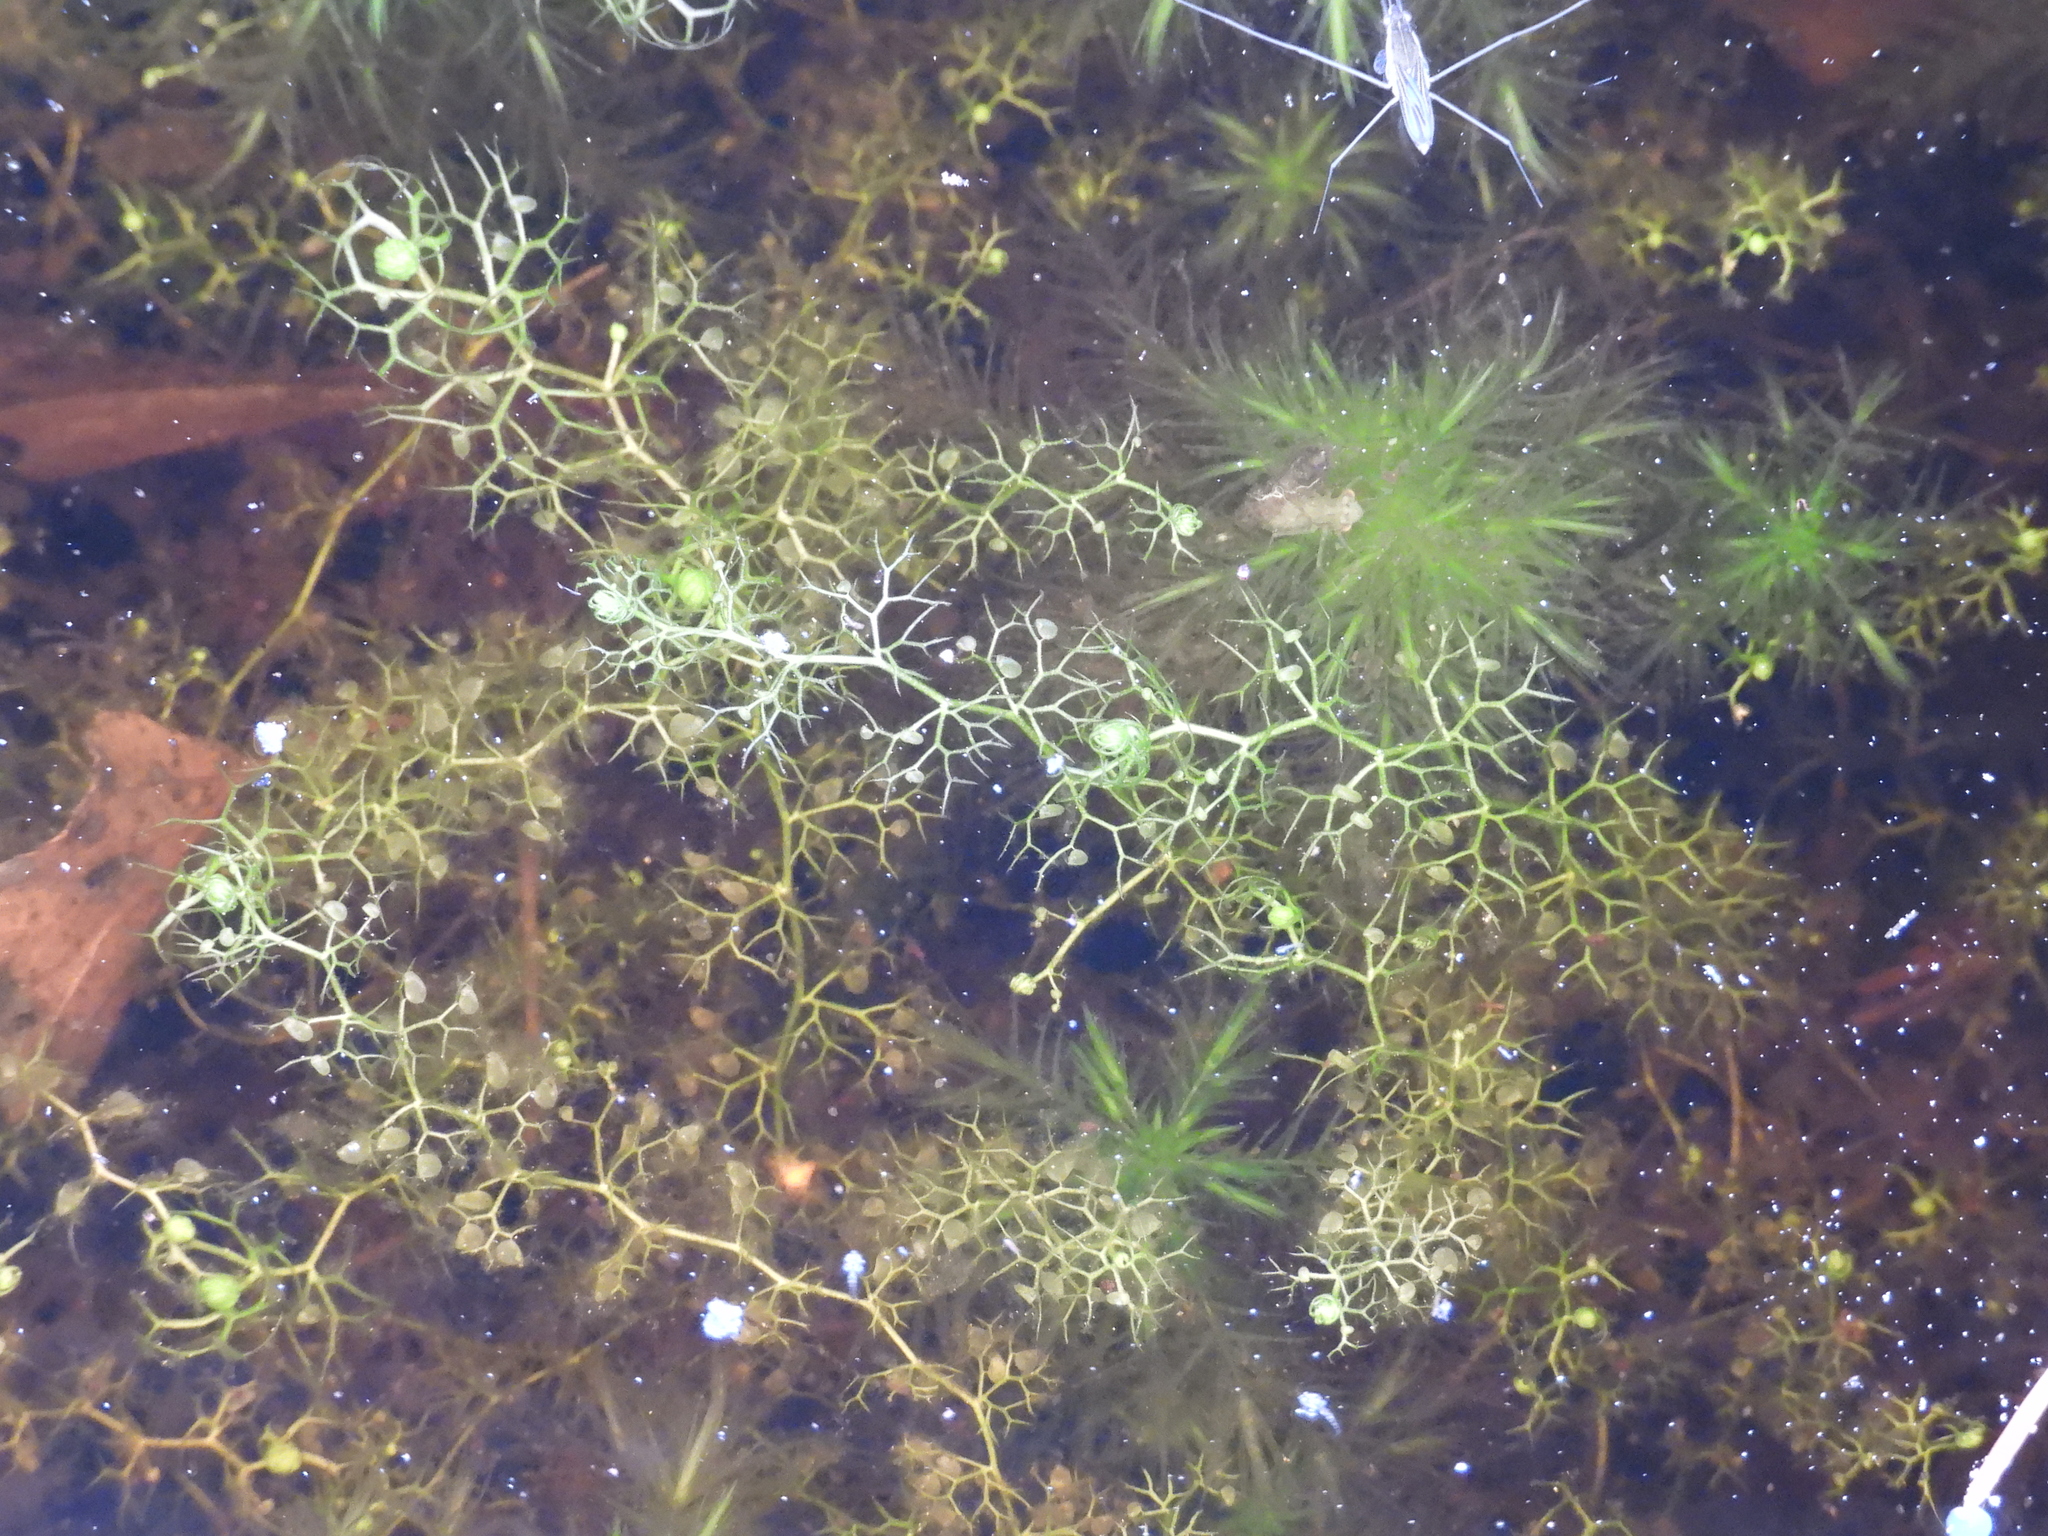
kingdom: Plantae
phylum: Tracheophyta
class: Magnoliopsida
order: Lamiales
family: Lentibulariaceae
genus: Utricularia
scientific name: Utricularia minor
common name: Lesser bladderwort
